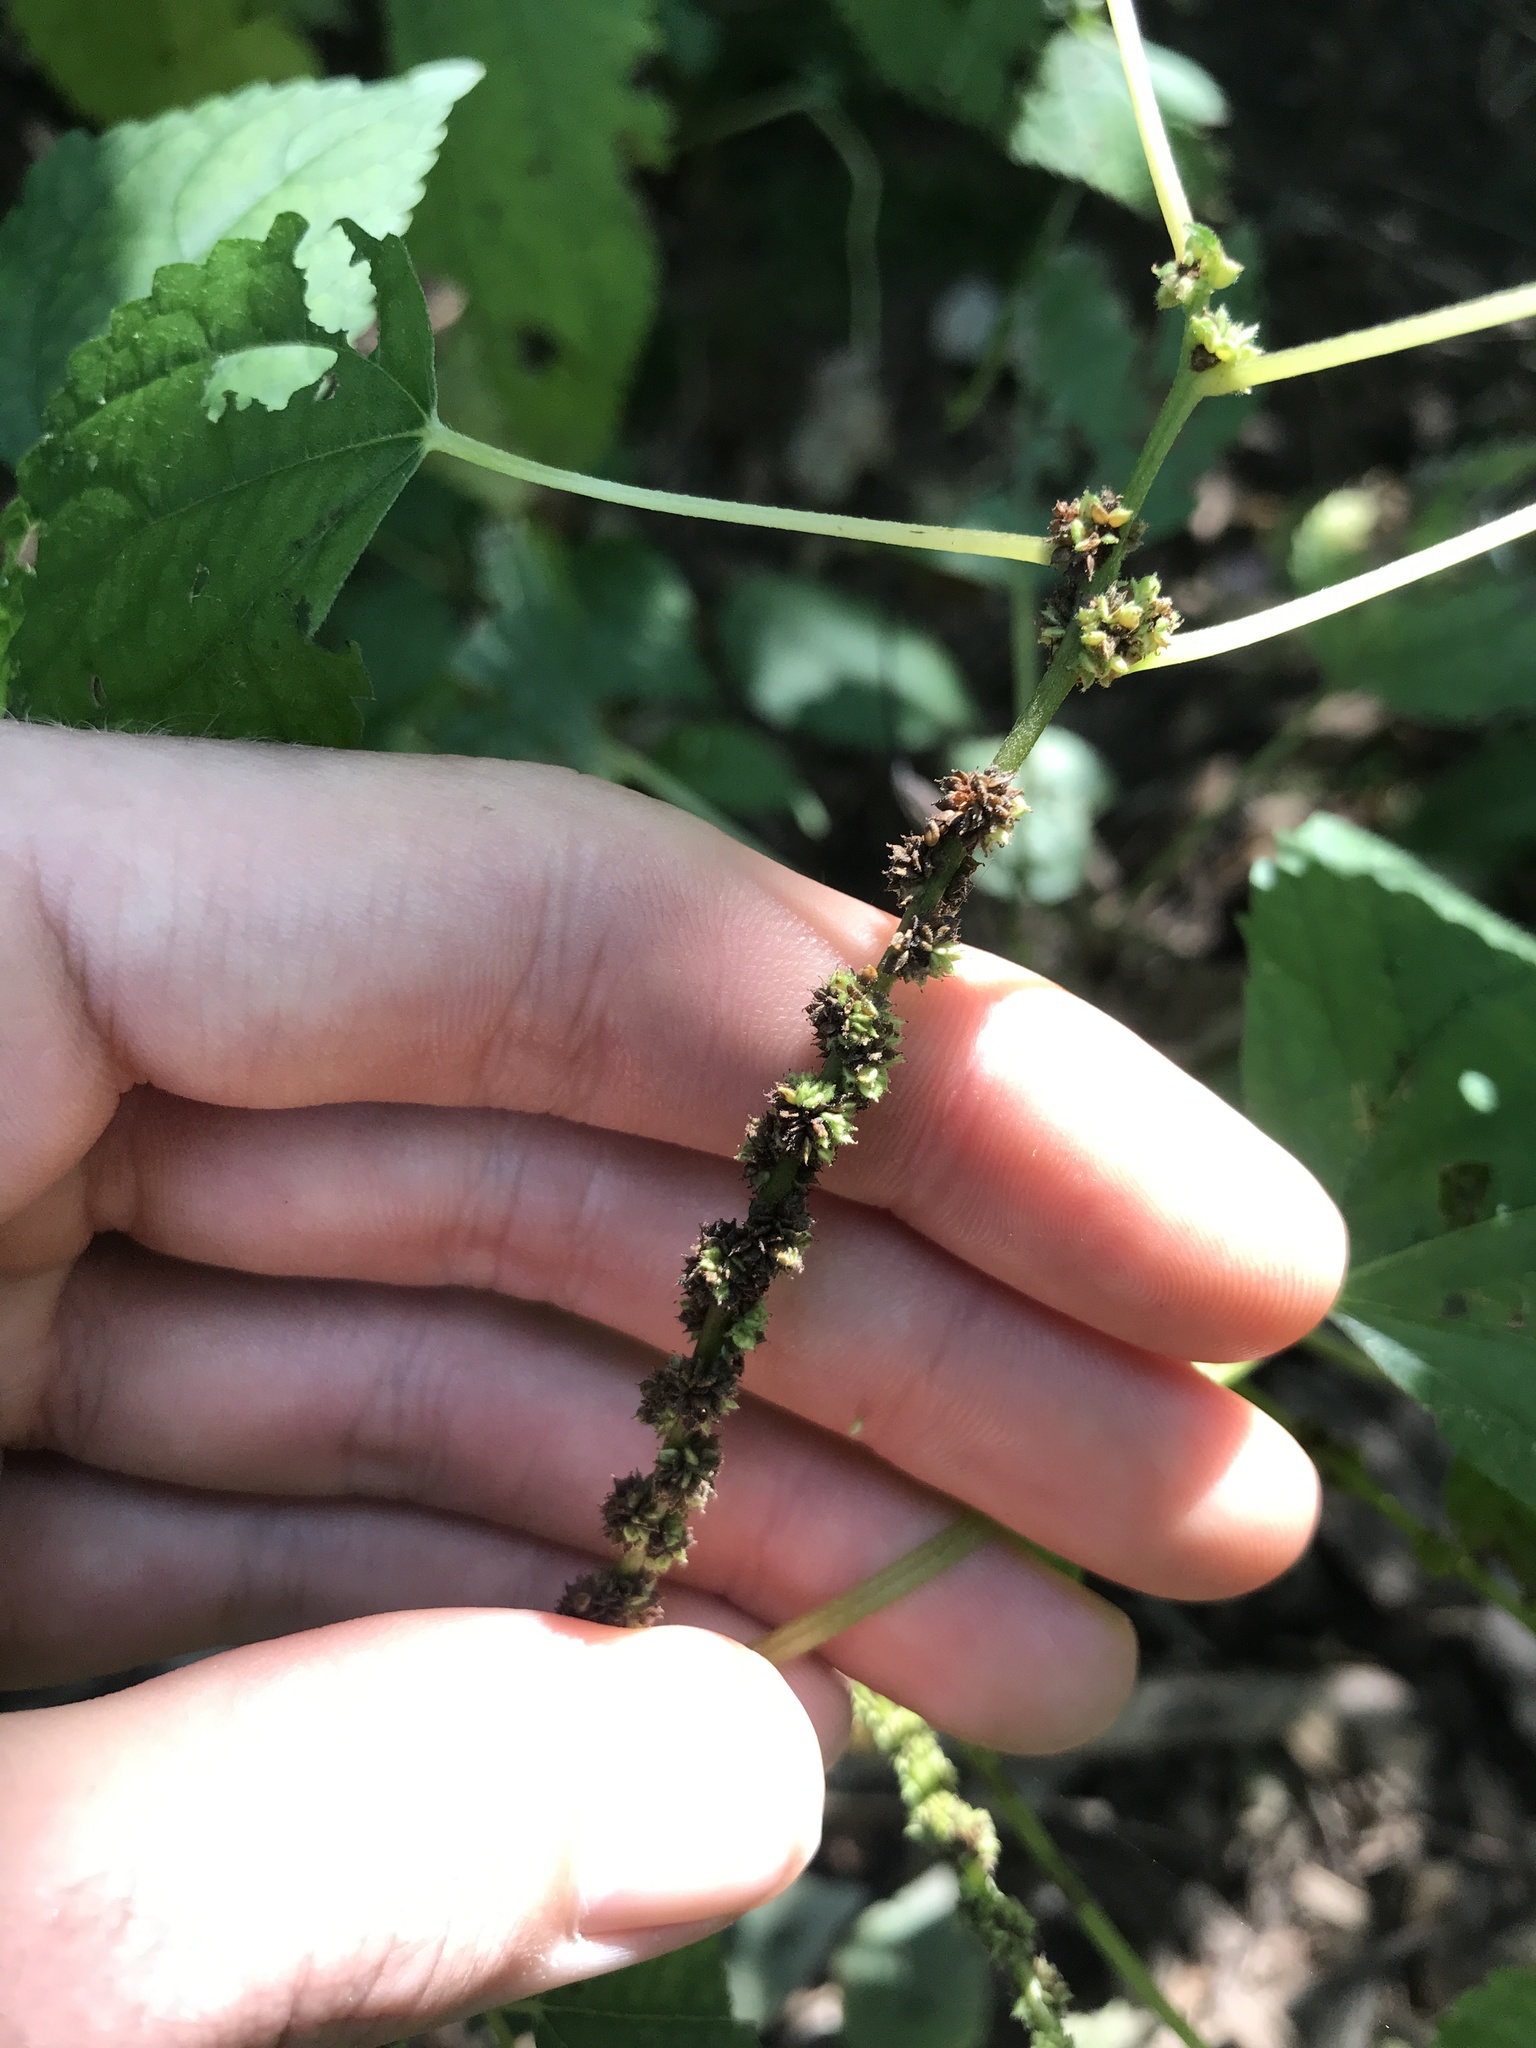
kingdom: Plantae
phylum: Tracheophyta
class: Magnoliopsida
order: Rosales
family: Urticaceae
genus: Boehmeria
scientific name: Boehmeria cylindrica
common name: Bog-hemp
